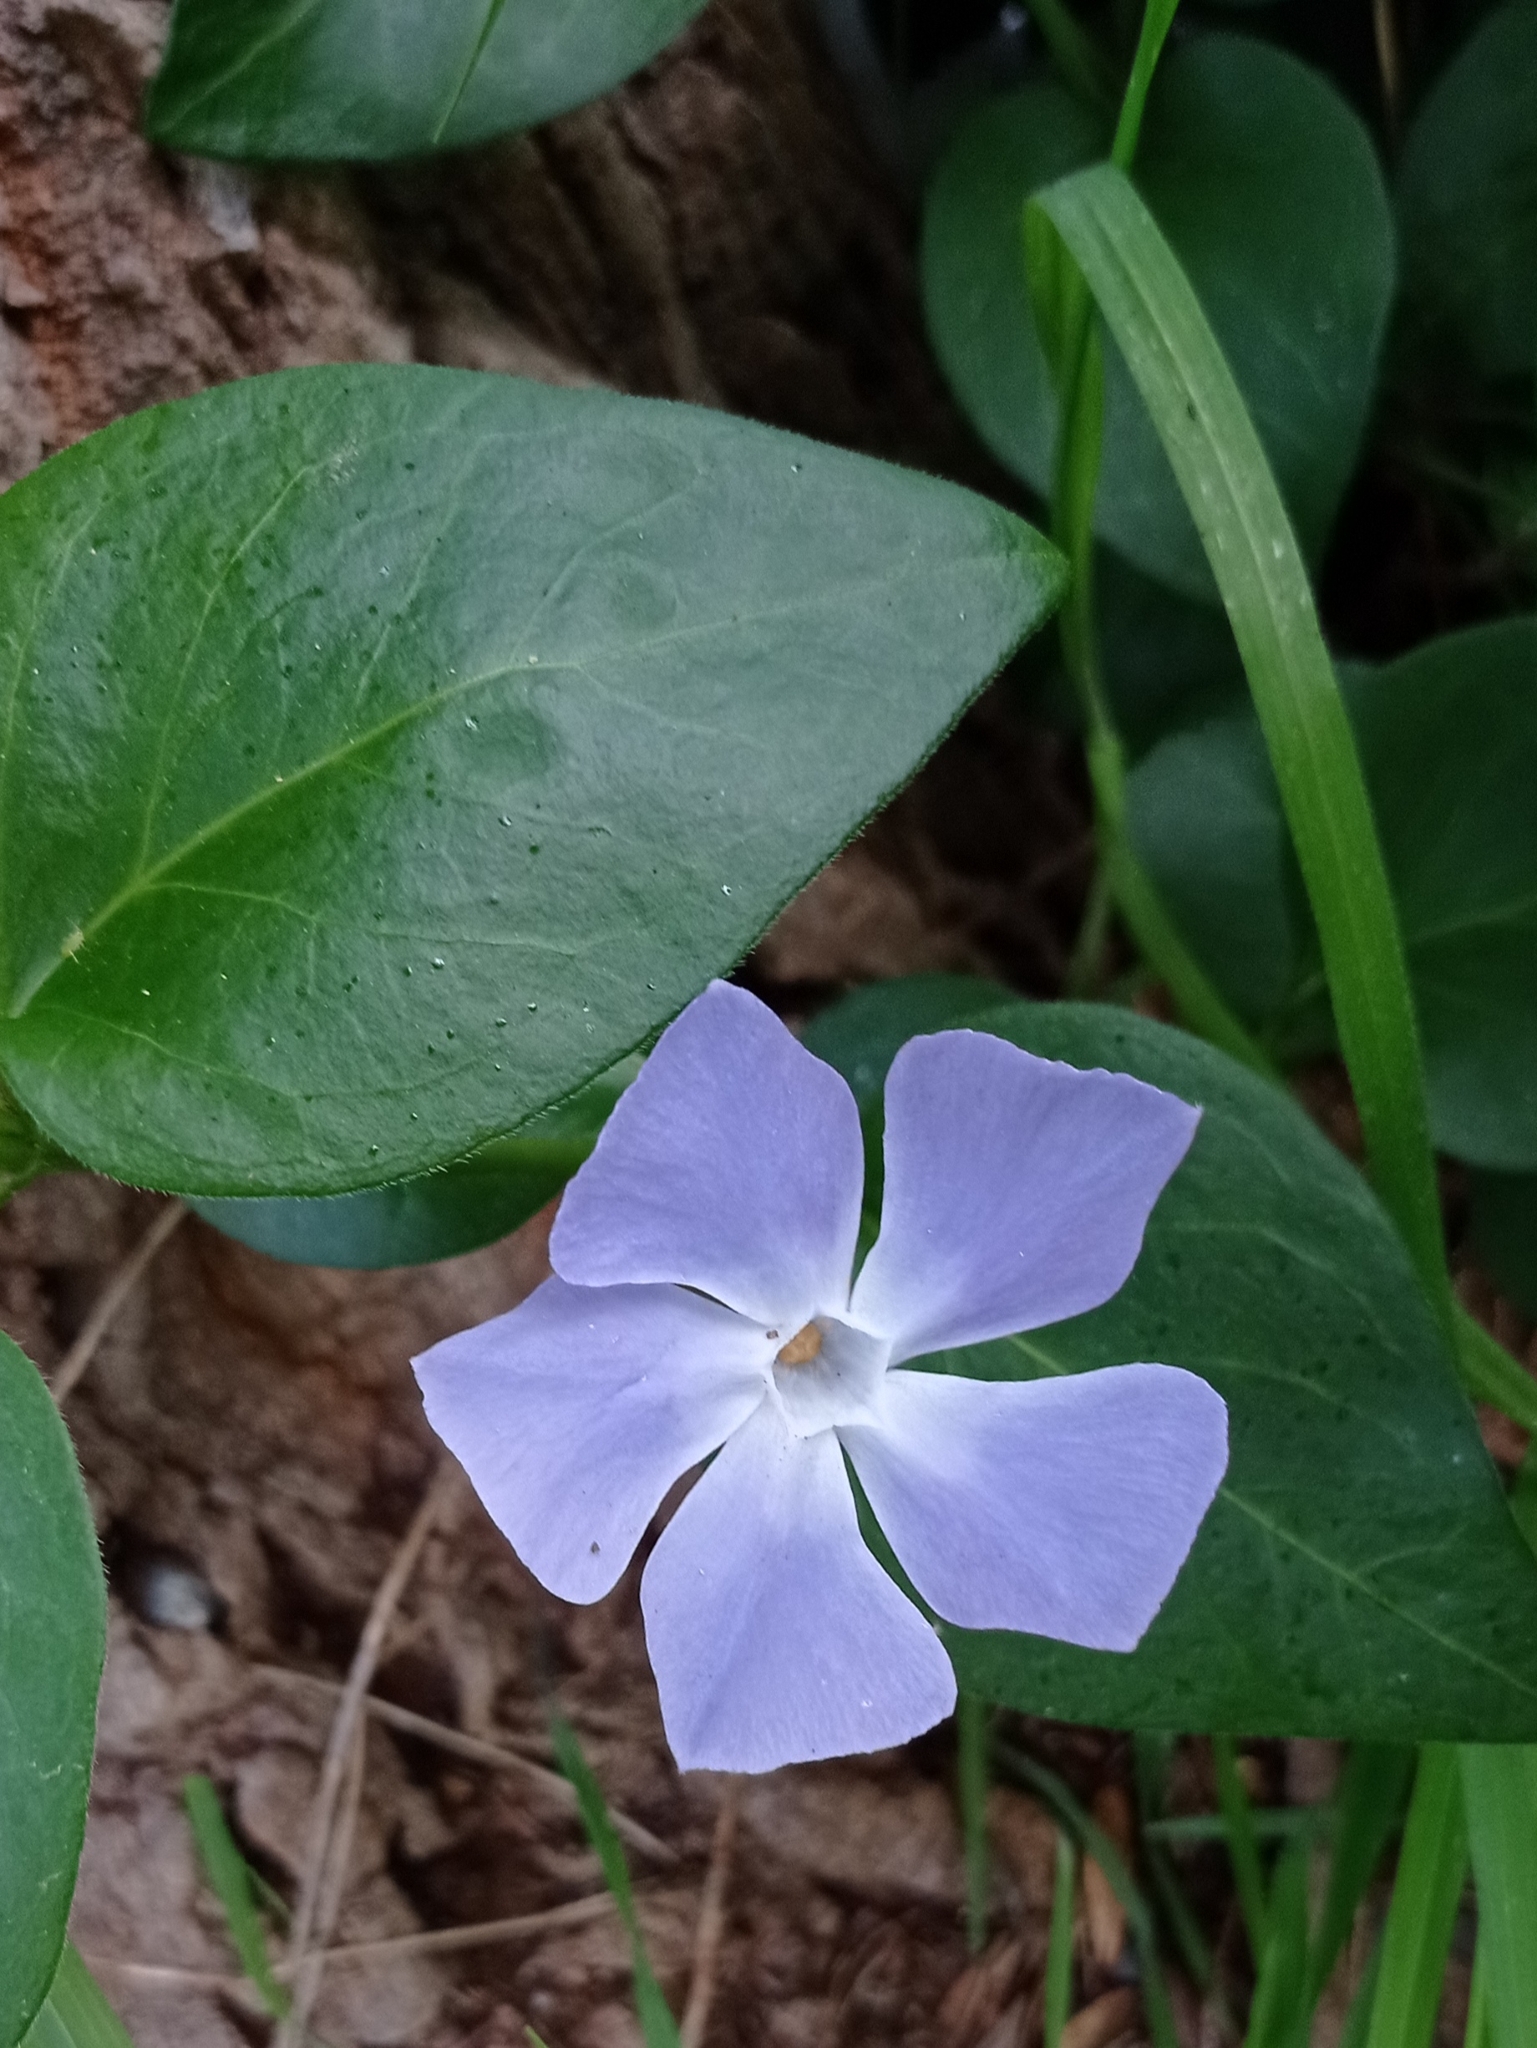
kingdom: Plantae
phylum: Tracheophyta
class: Magnoliopsida
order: Gentianales
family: Apocynaceae
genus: Vinca
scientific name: Vinca major
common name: Greater periwinkle
